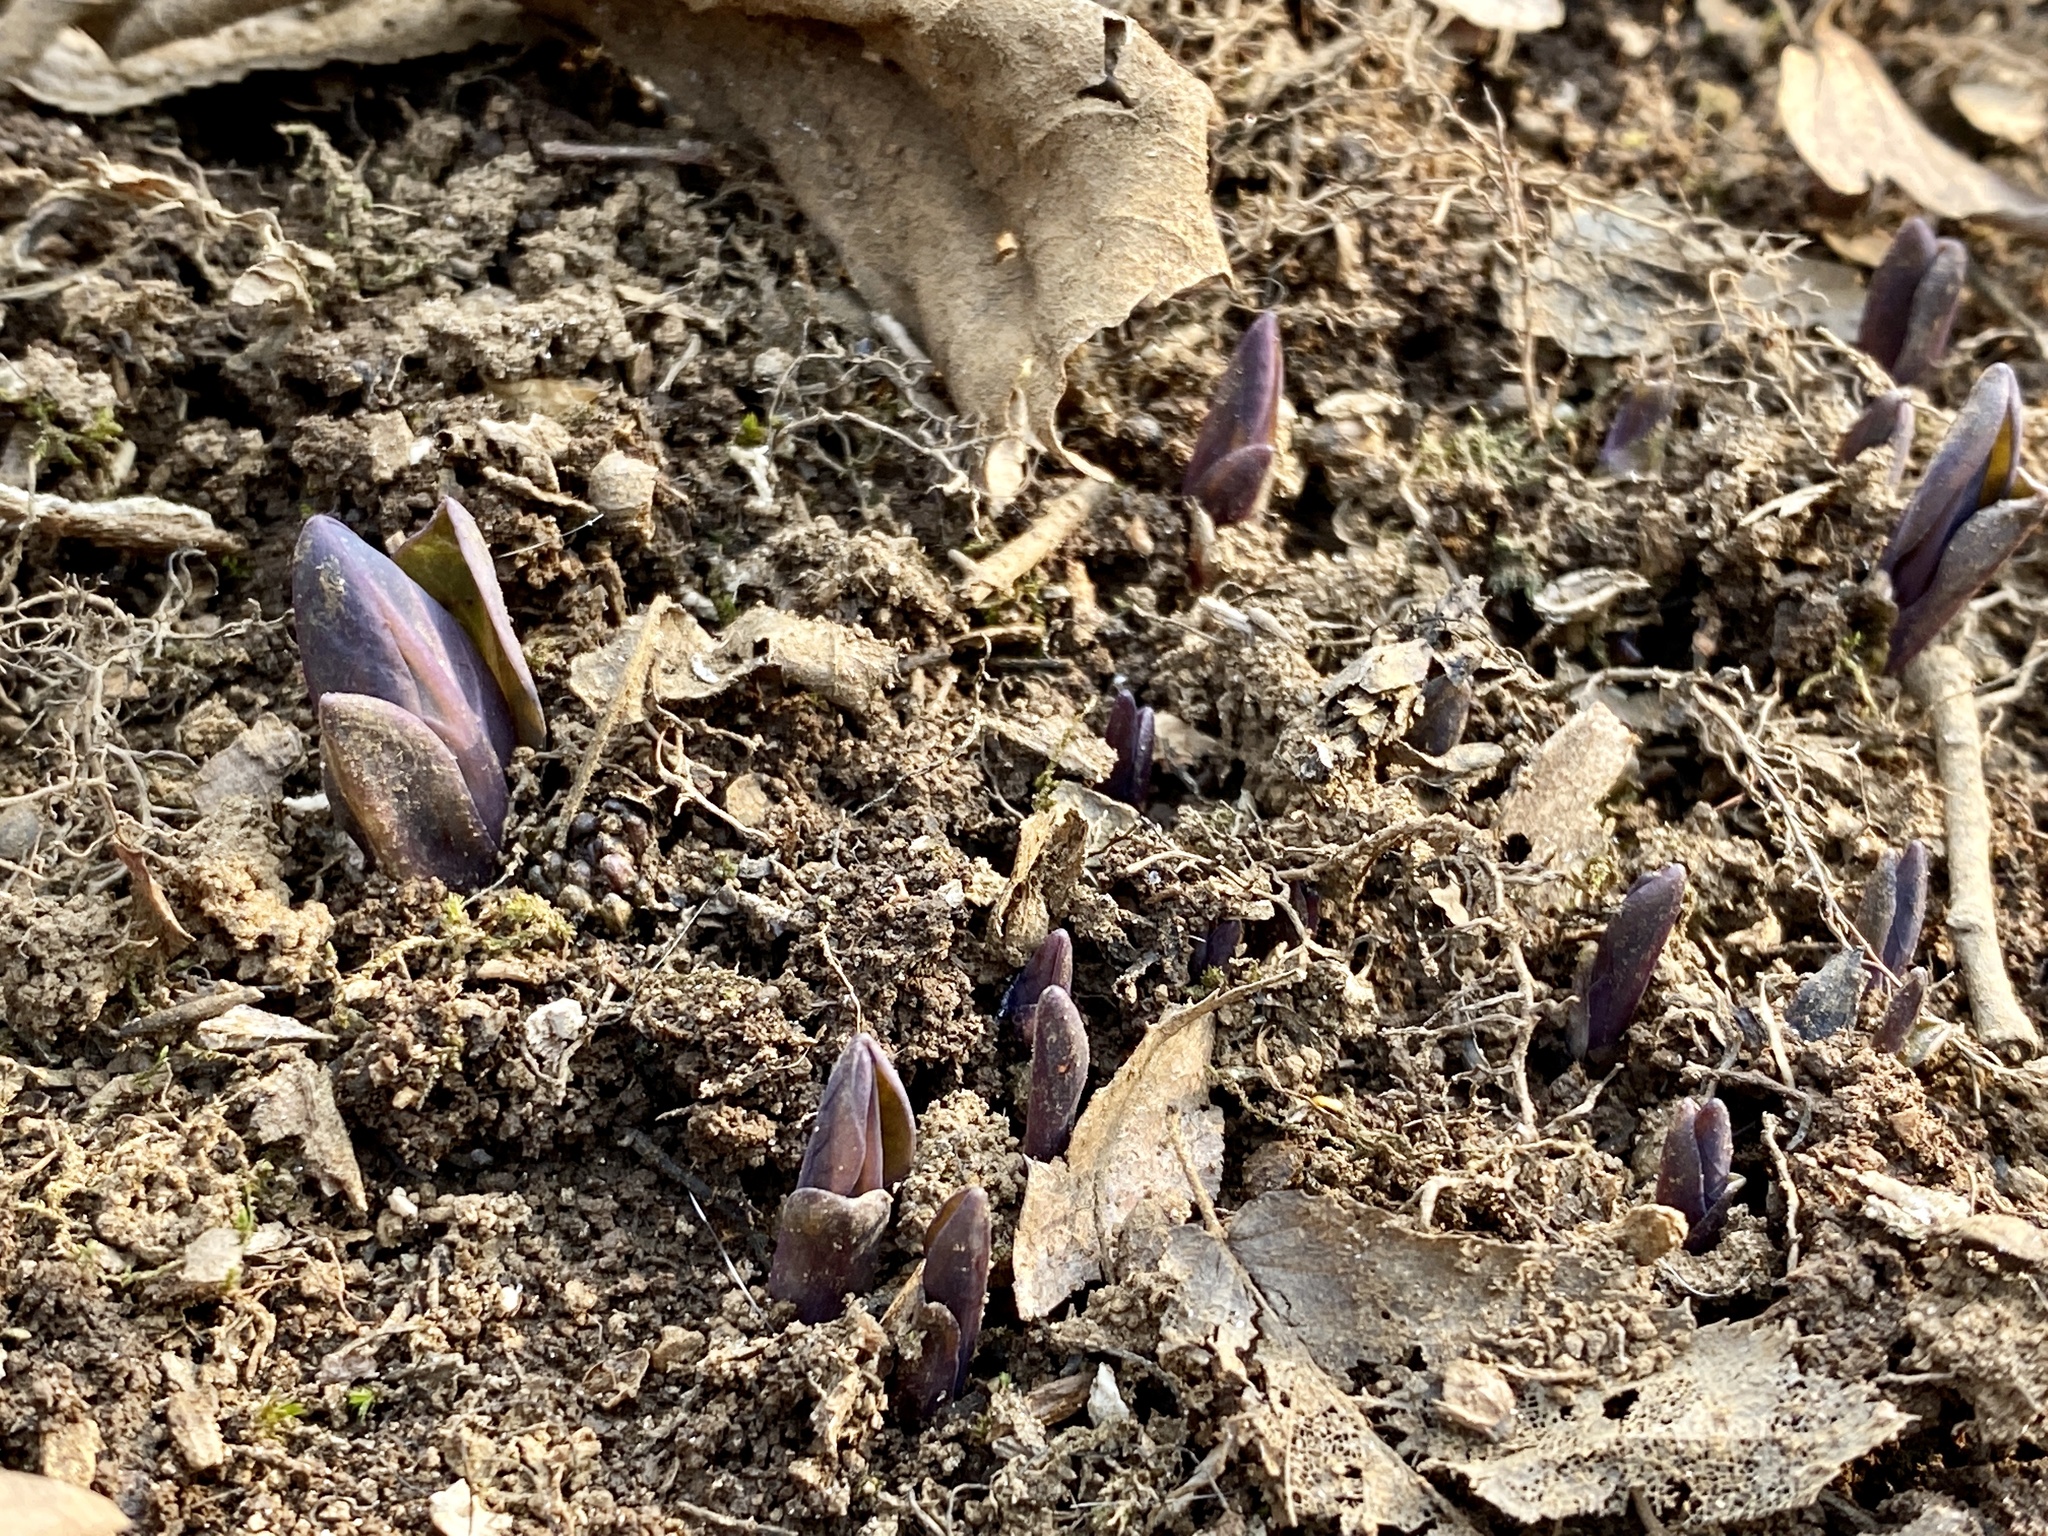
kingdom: Plantae
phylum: Tracheophyta
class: Magnoliopsida
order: Boraginales
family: Boraginaceae
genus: Mertensia
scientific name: Mertensia virginica
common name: Virginia bluebells
